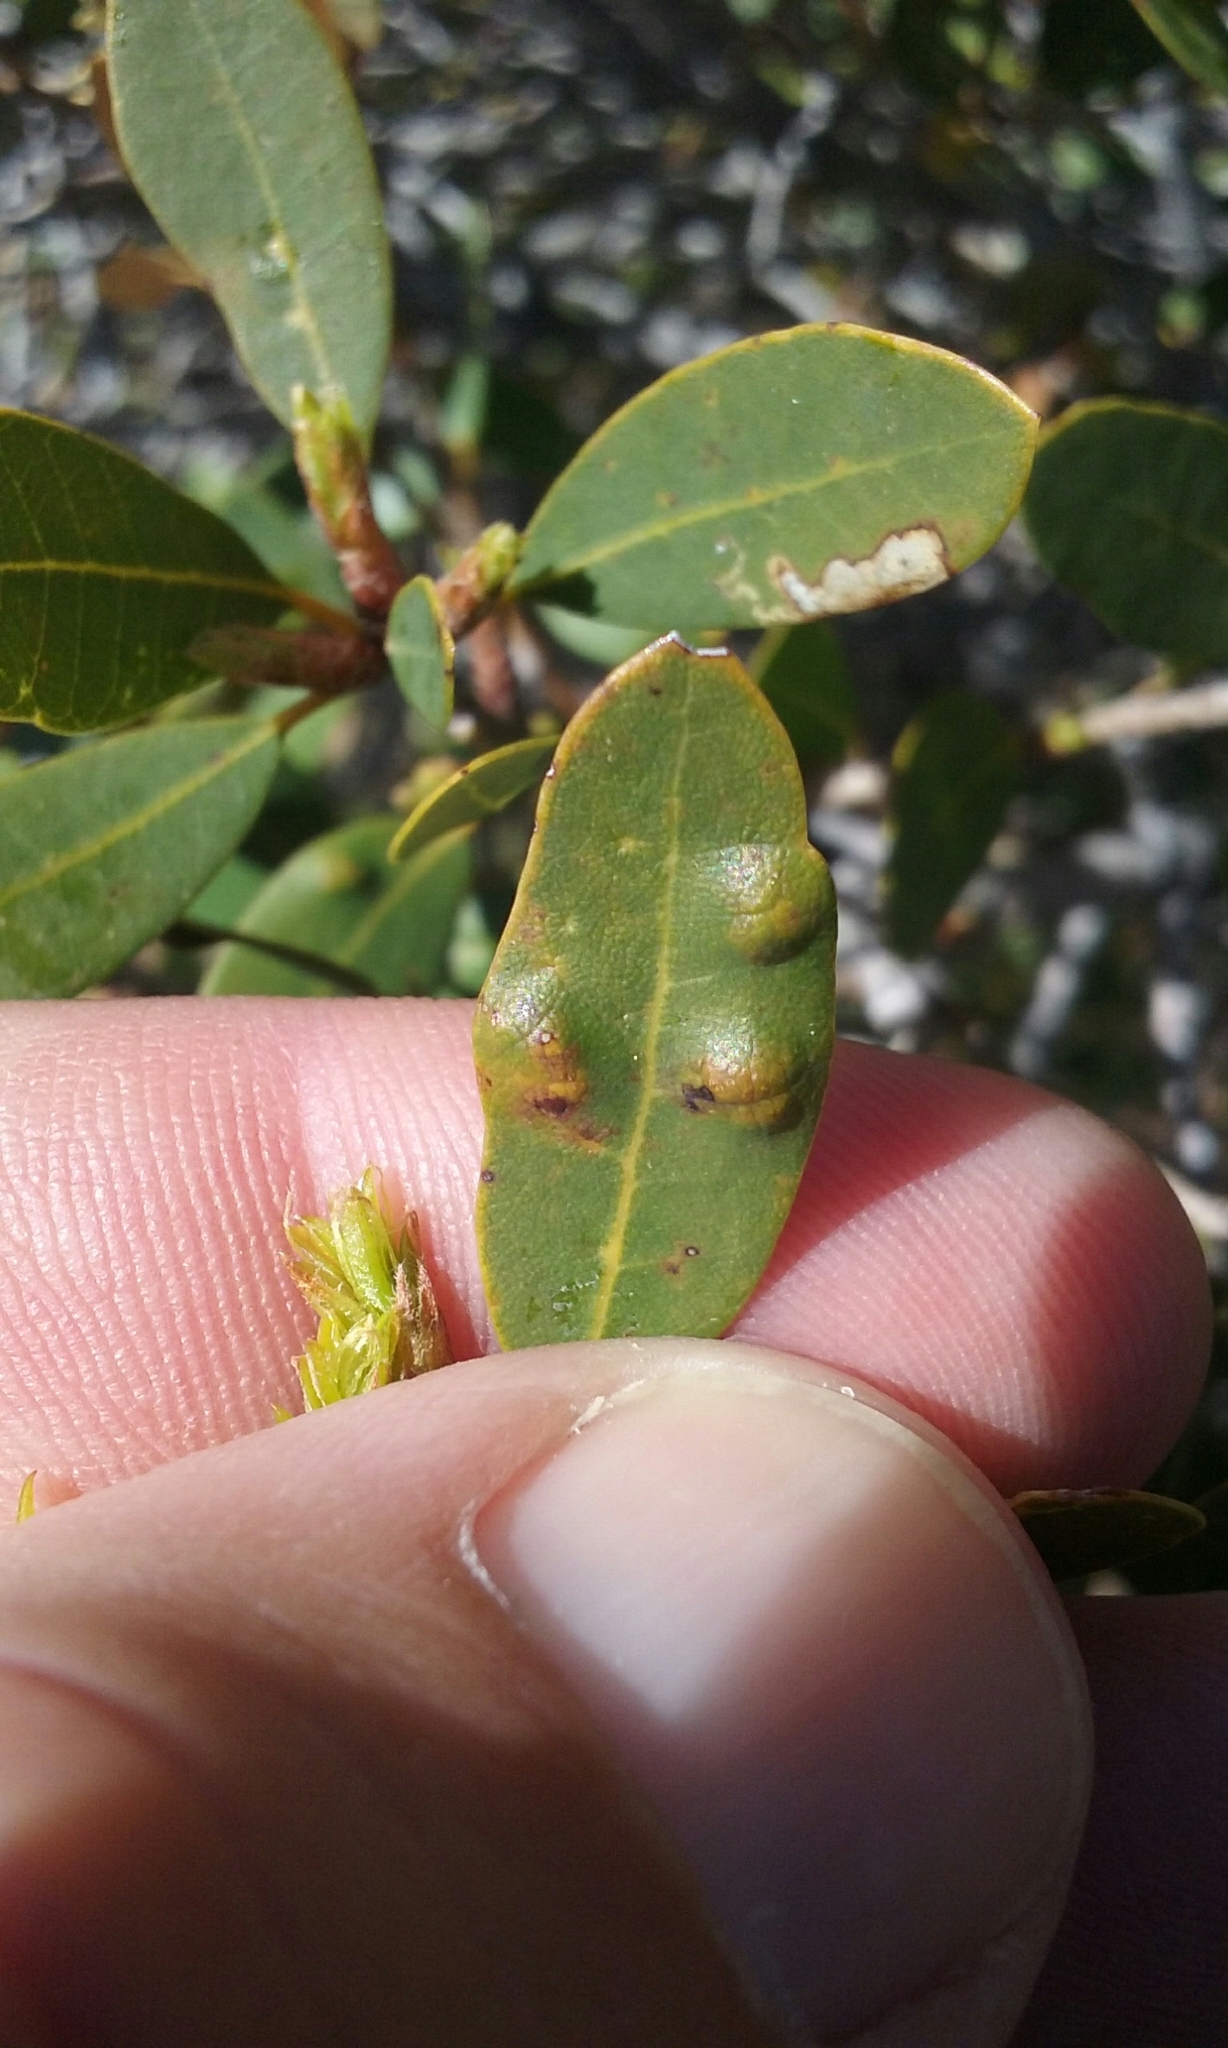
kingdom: Animalia
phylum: Arthropoda
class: Arachnida
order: Trombidiformes
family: Eriophyidae
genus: Aceria
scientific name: Aceria
